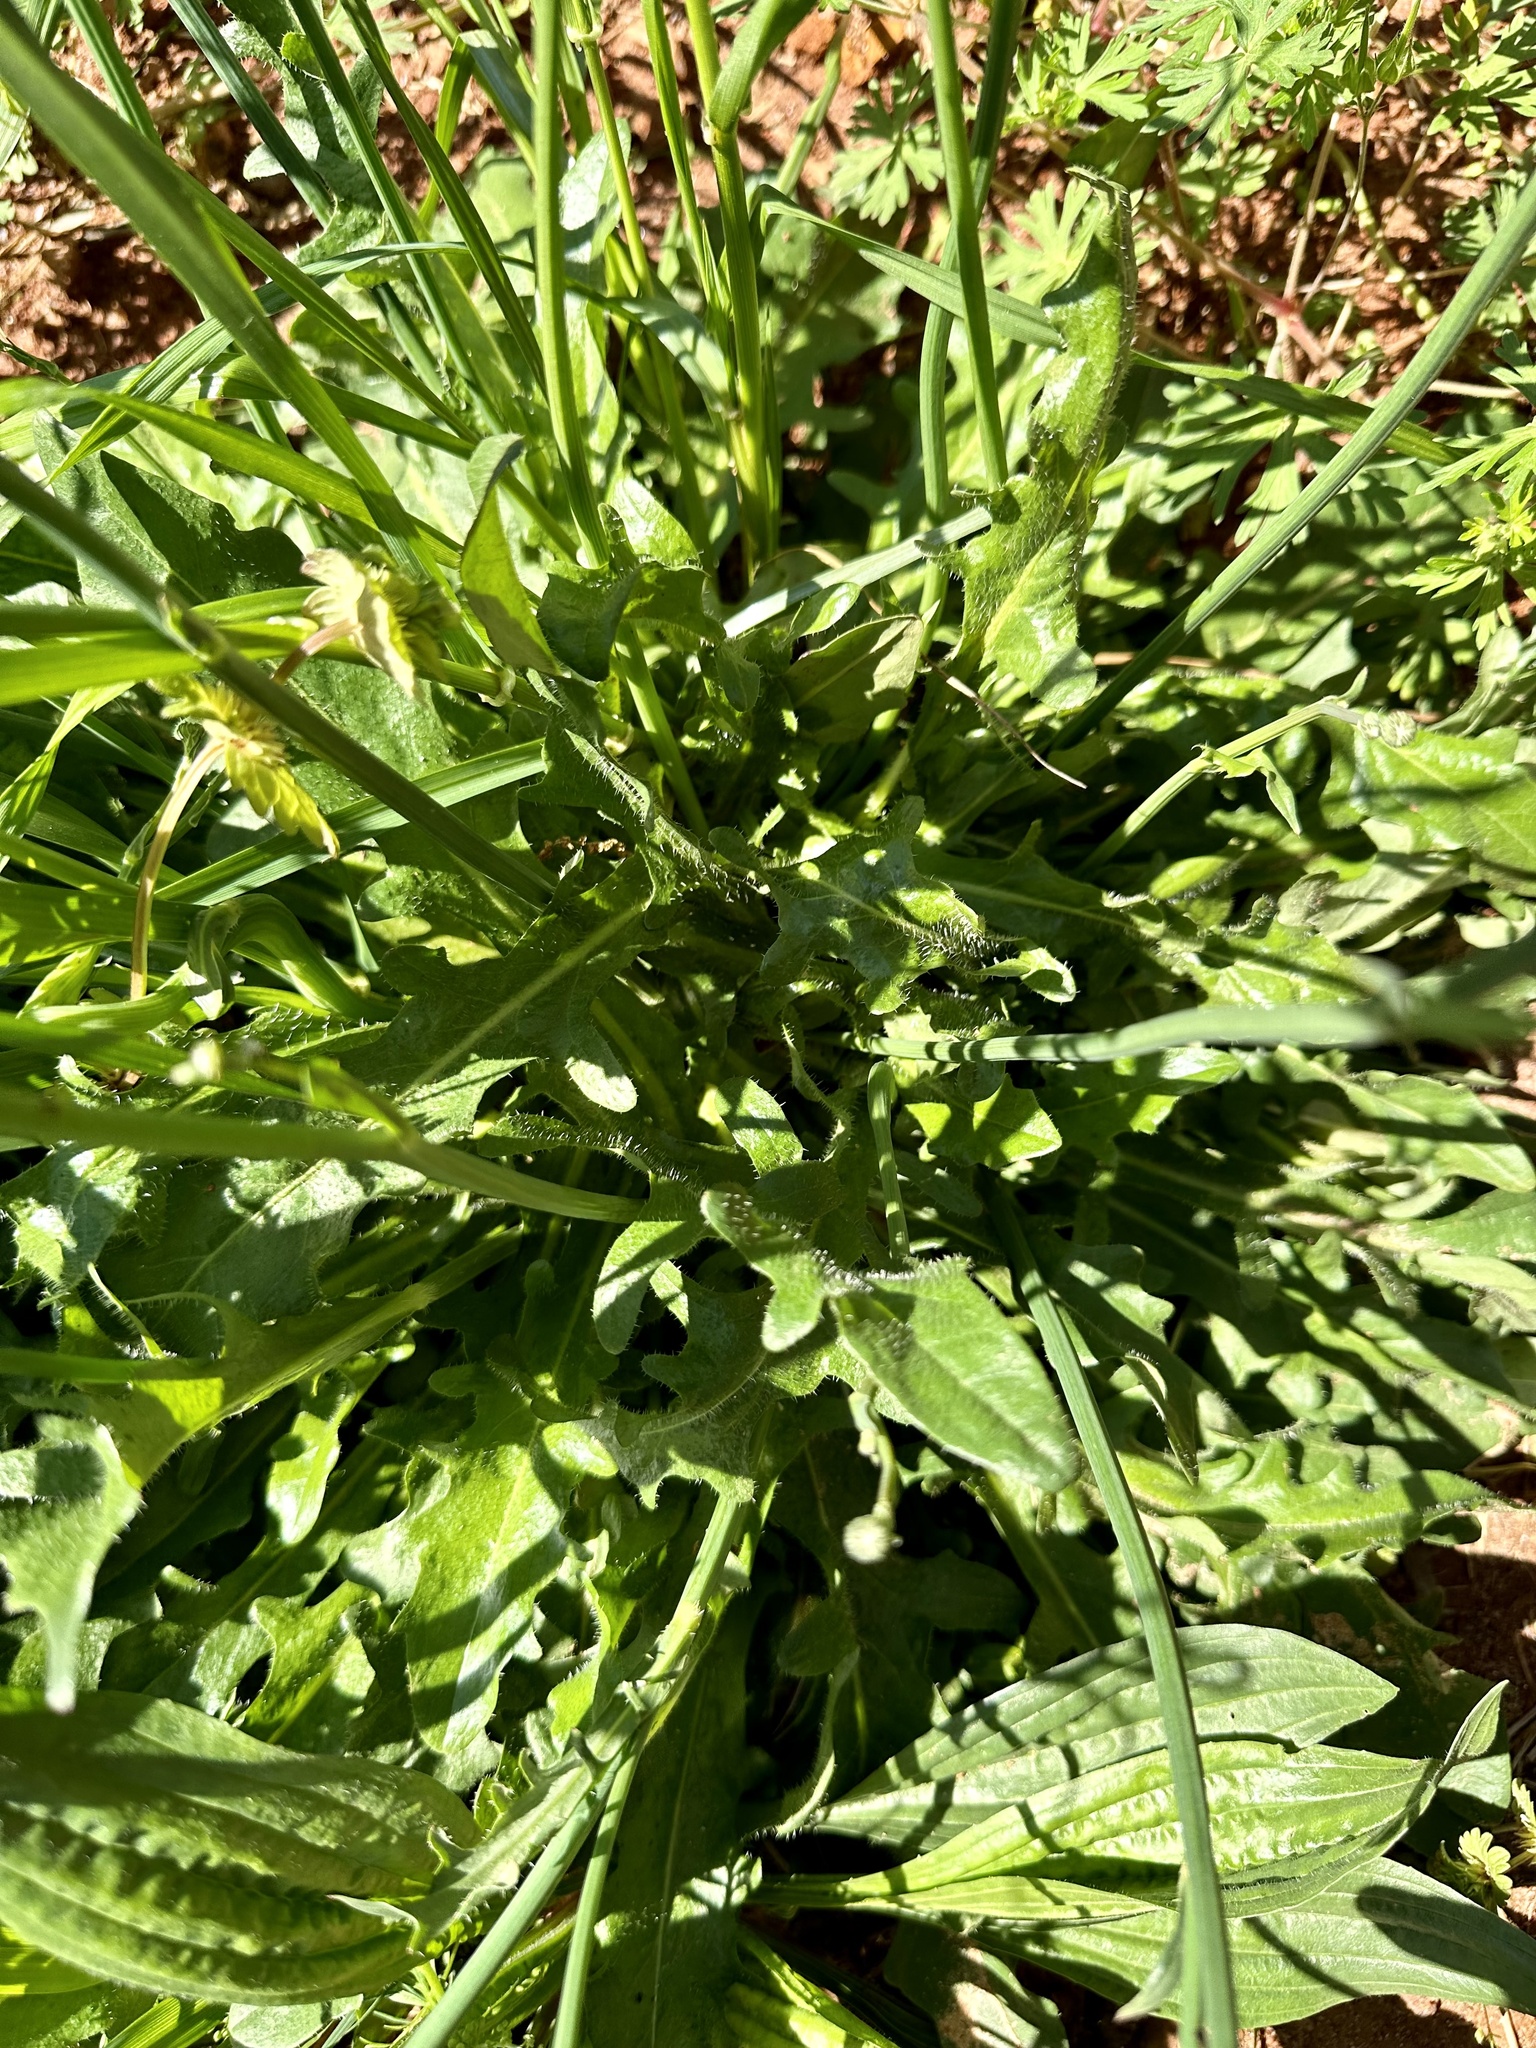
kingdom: Plantae
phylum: Tracheophyta
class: Magnoliopsida
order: Asterales
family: Asteraceae
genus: Hypochaeris
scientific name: Hypochaeris radicata
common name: Flatweed
